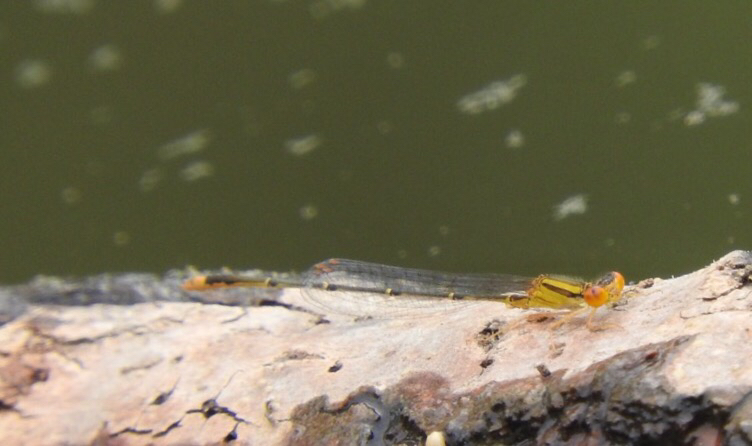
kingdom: Animalia
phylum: Arthropoda
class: Insecta
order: Odonata
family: Coenagrionidae
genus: Enallagma
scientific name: Enallagma signatum
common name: Orange bluet
